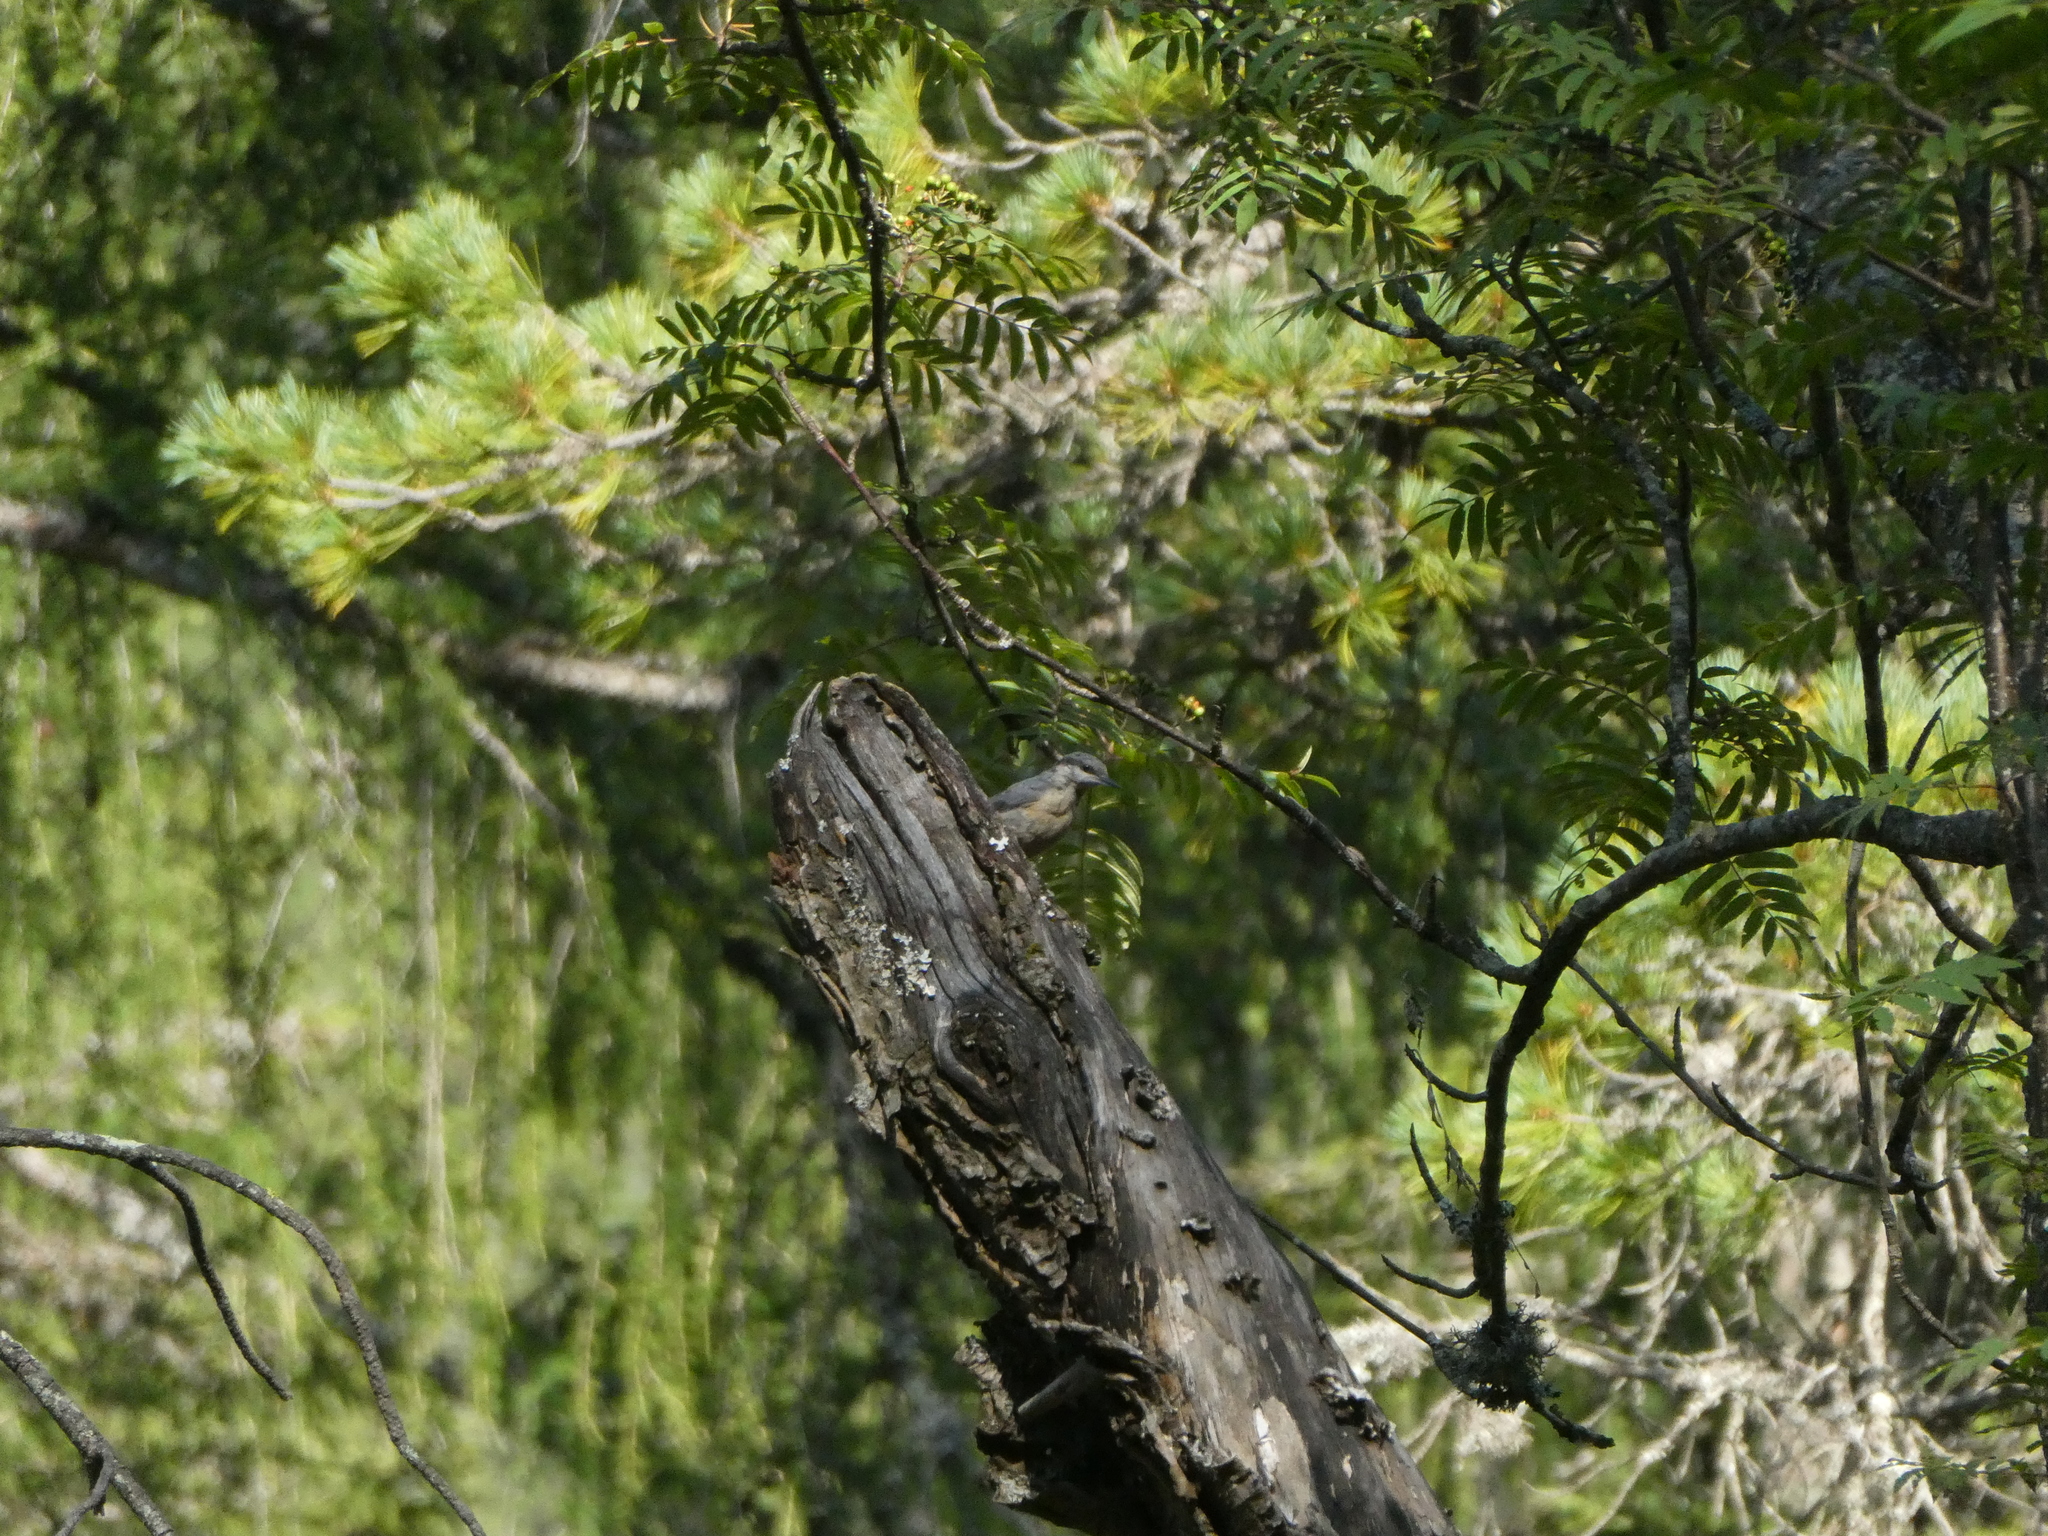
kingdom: Animalia
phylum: Chordata
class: Aves
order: Passeriformes
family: Sittidae
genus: Sitta
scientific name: Sitta europaea
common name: Eurasian nuthatch
